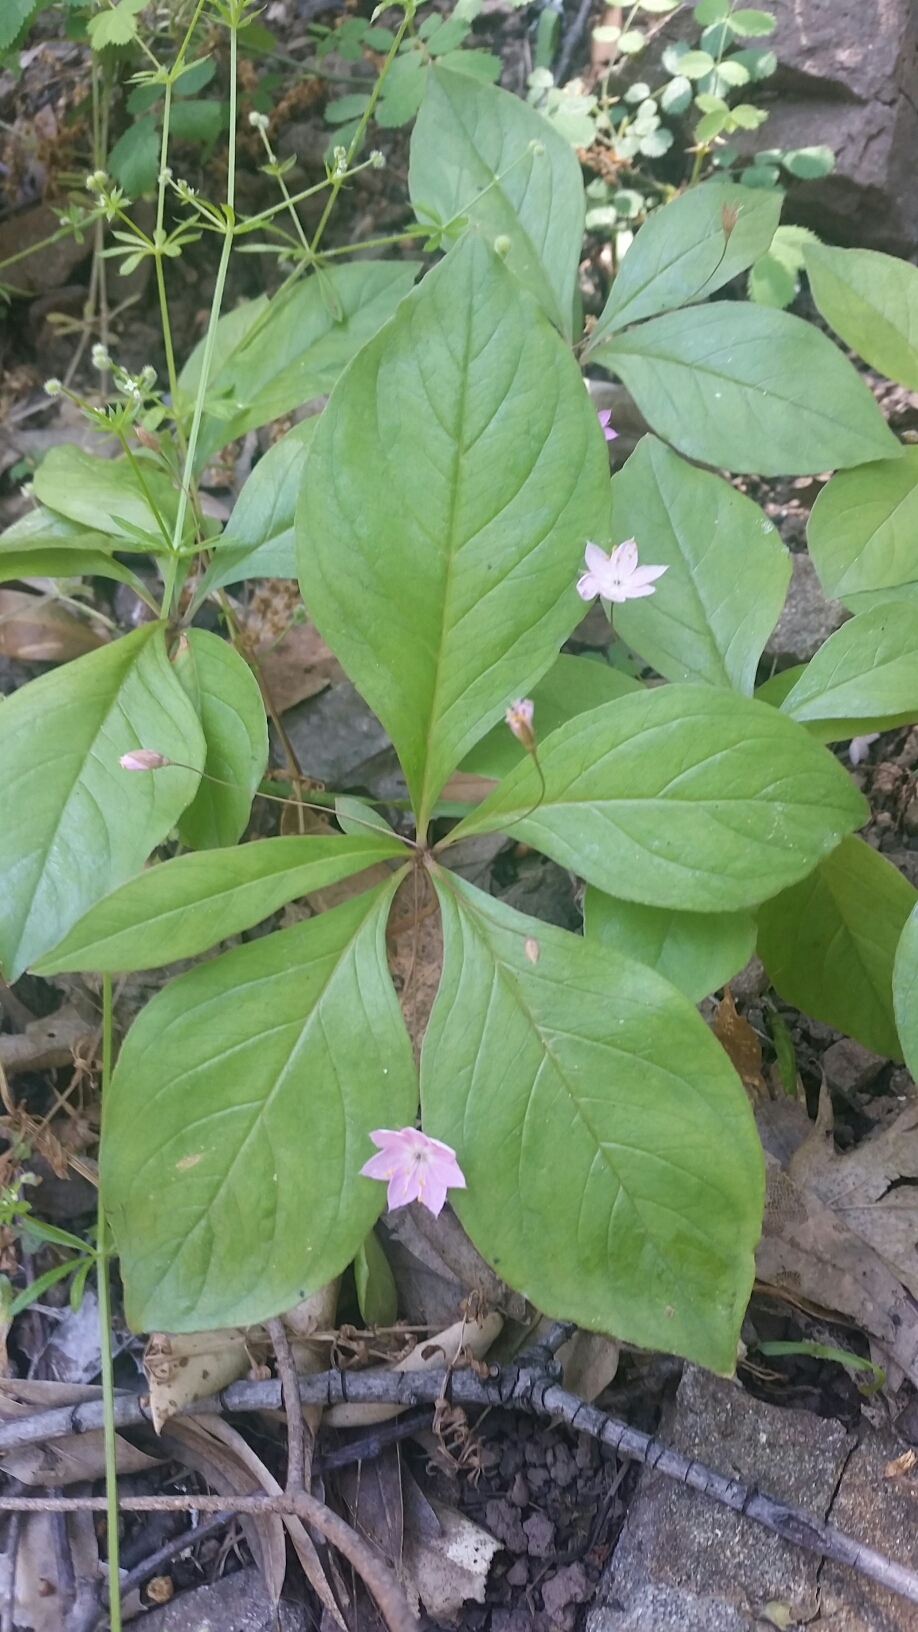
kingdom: Plantae
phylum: Tracheophyta
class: Magnoliopsida
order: Ericales
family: Primulaceae
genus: Lysimachia
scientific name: Lysimachia latifolia
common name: Pacific starflower
